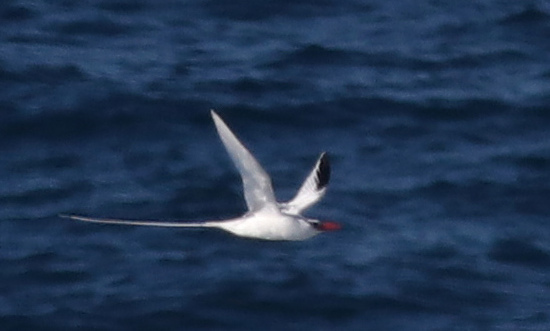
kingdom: Animalia
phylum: Chordata
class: Aves
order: Phaethontiformes
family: Phaethontidae
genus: Phaethon
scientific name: Phaethon aethereus
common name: Red-billed tropicbird
